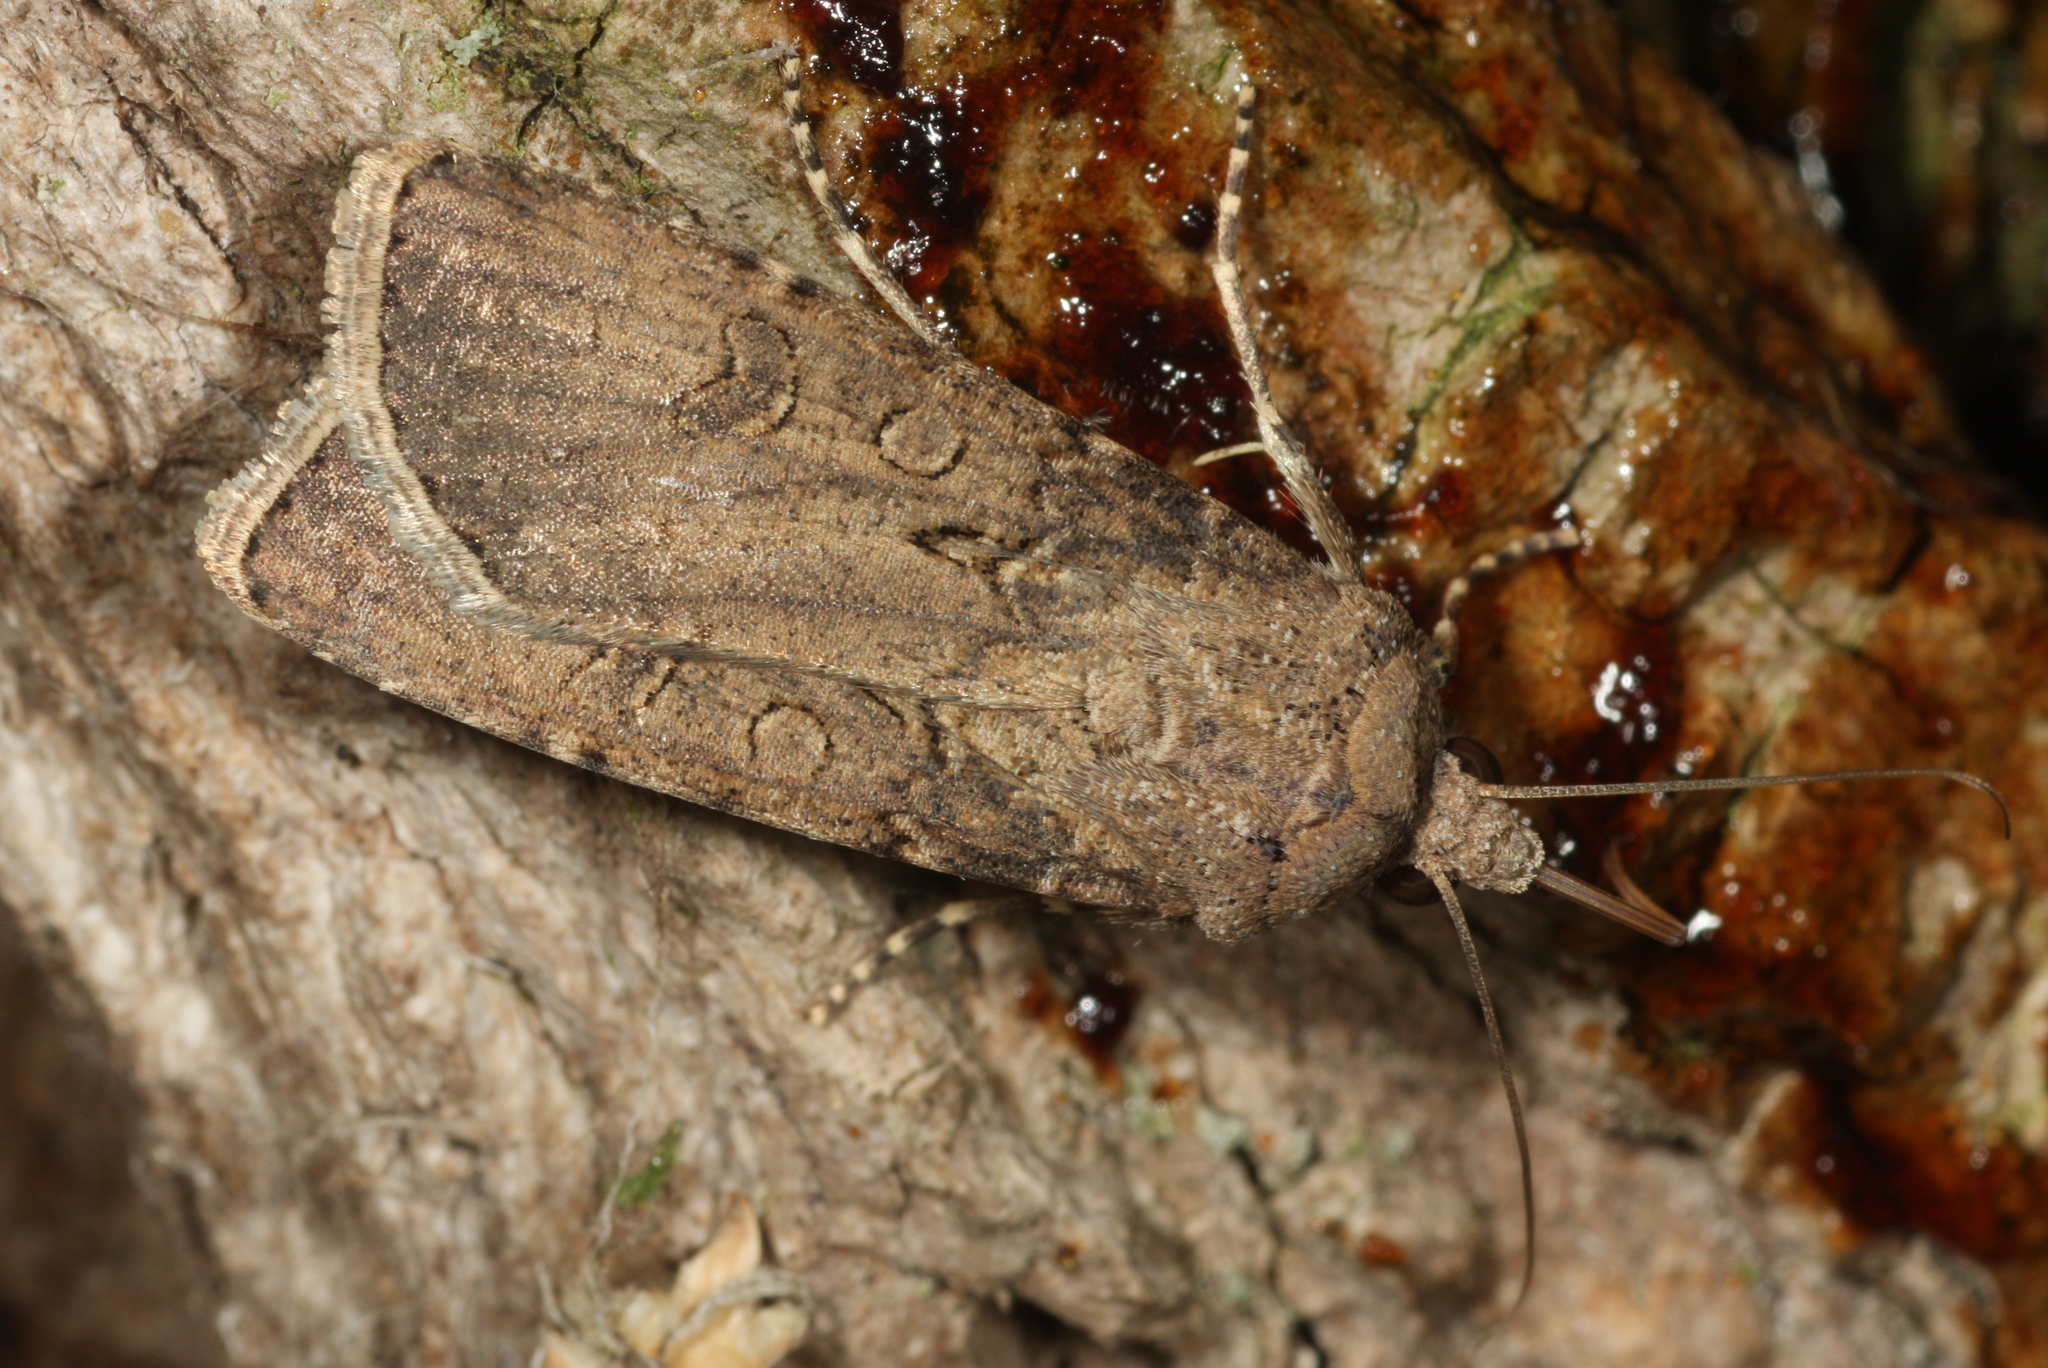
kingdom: Animalia
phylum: Arthropoda
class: Insecta
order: Lepidoptera
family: Noctuidae
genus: Agrotis
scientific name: Agrotis segetum
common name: Turnip moth
